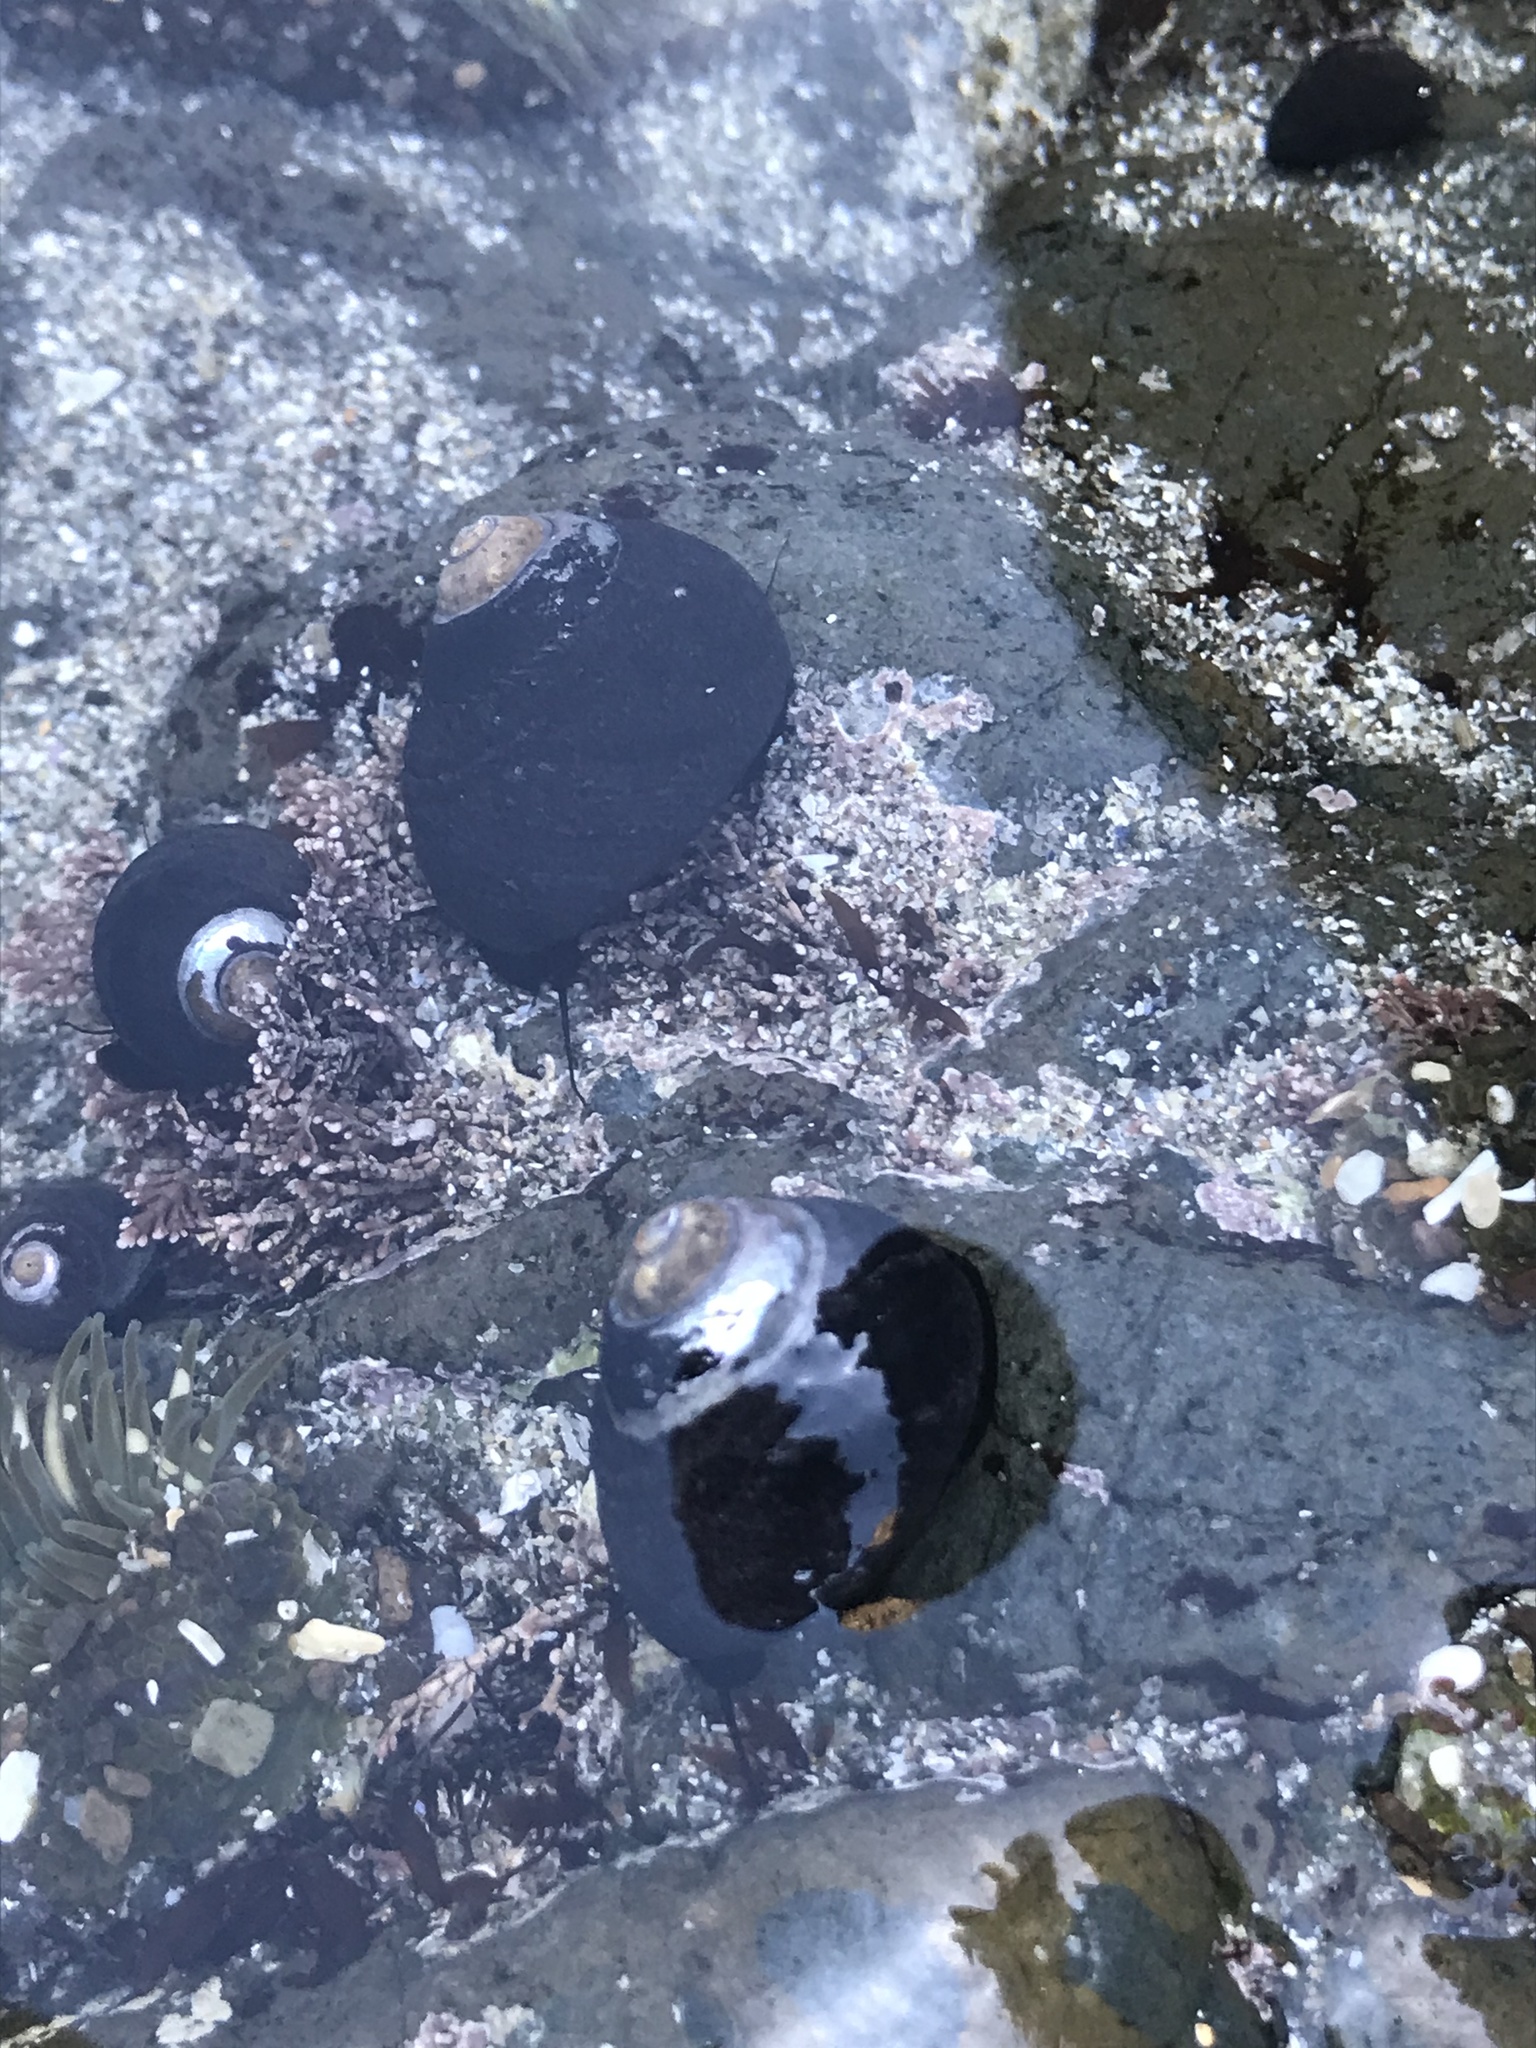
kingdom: Animalia
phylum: Mollusca
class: Gastropoda
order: Trochida
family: Tegulidae
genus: Tegula
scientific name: Tegula funebralis
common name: Black tegula
